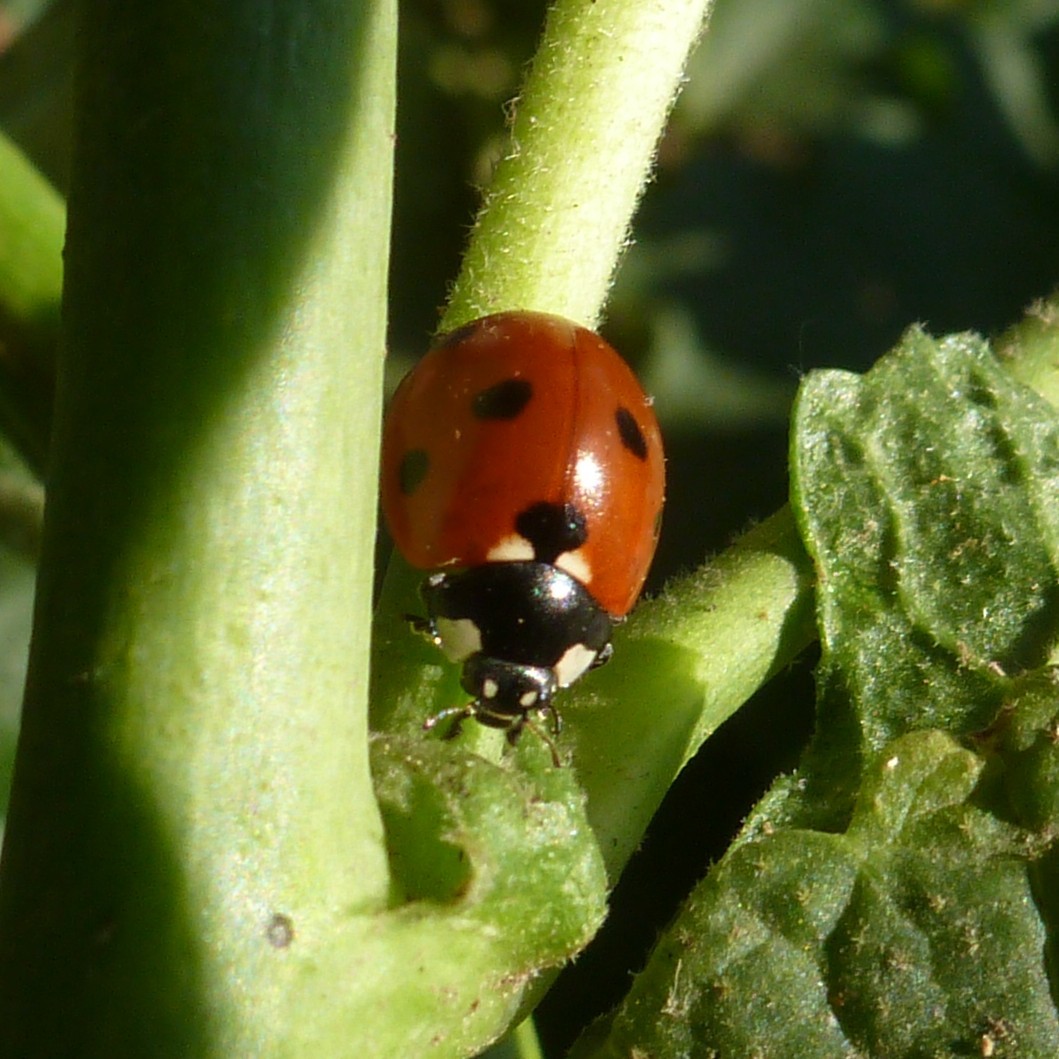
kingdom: Animalia
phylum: Arthropoda
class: Insecta
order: Coleoptera
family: Coccinellidae
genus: Coccinella
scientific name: Coccinella septempunctata
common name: Sevenspotted lady beetle
